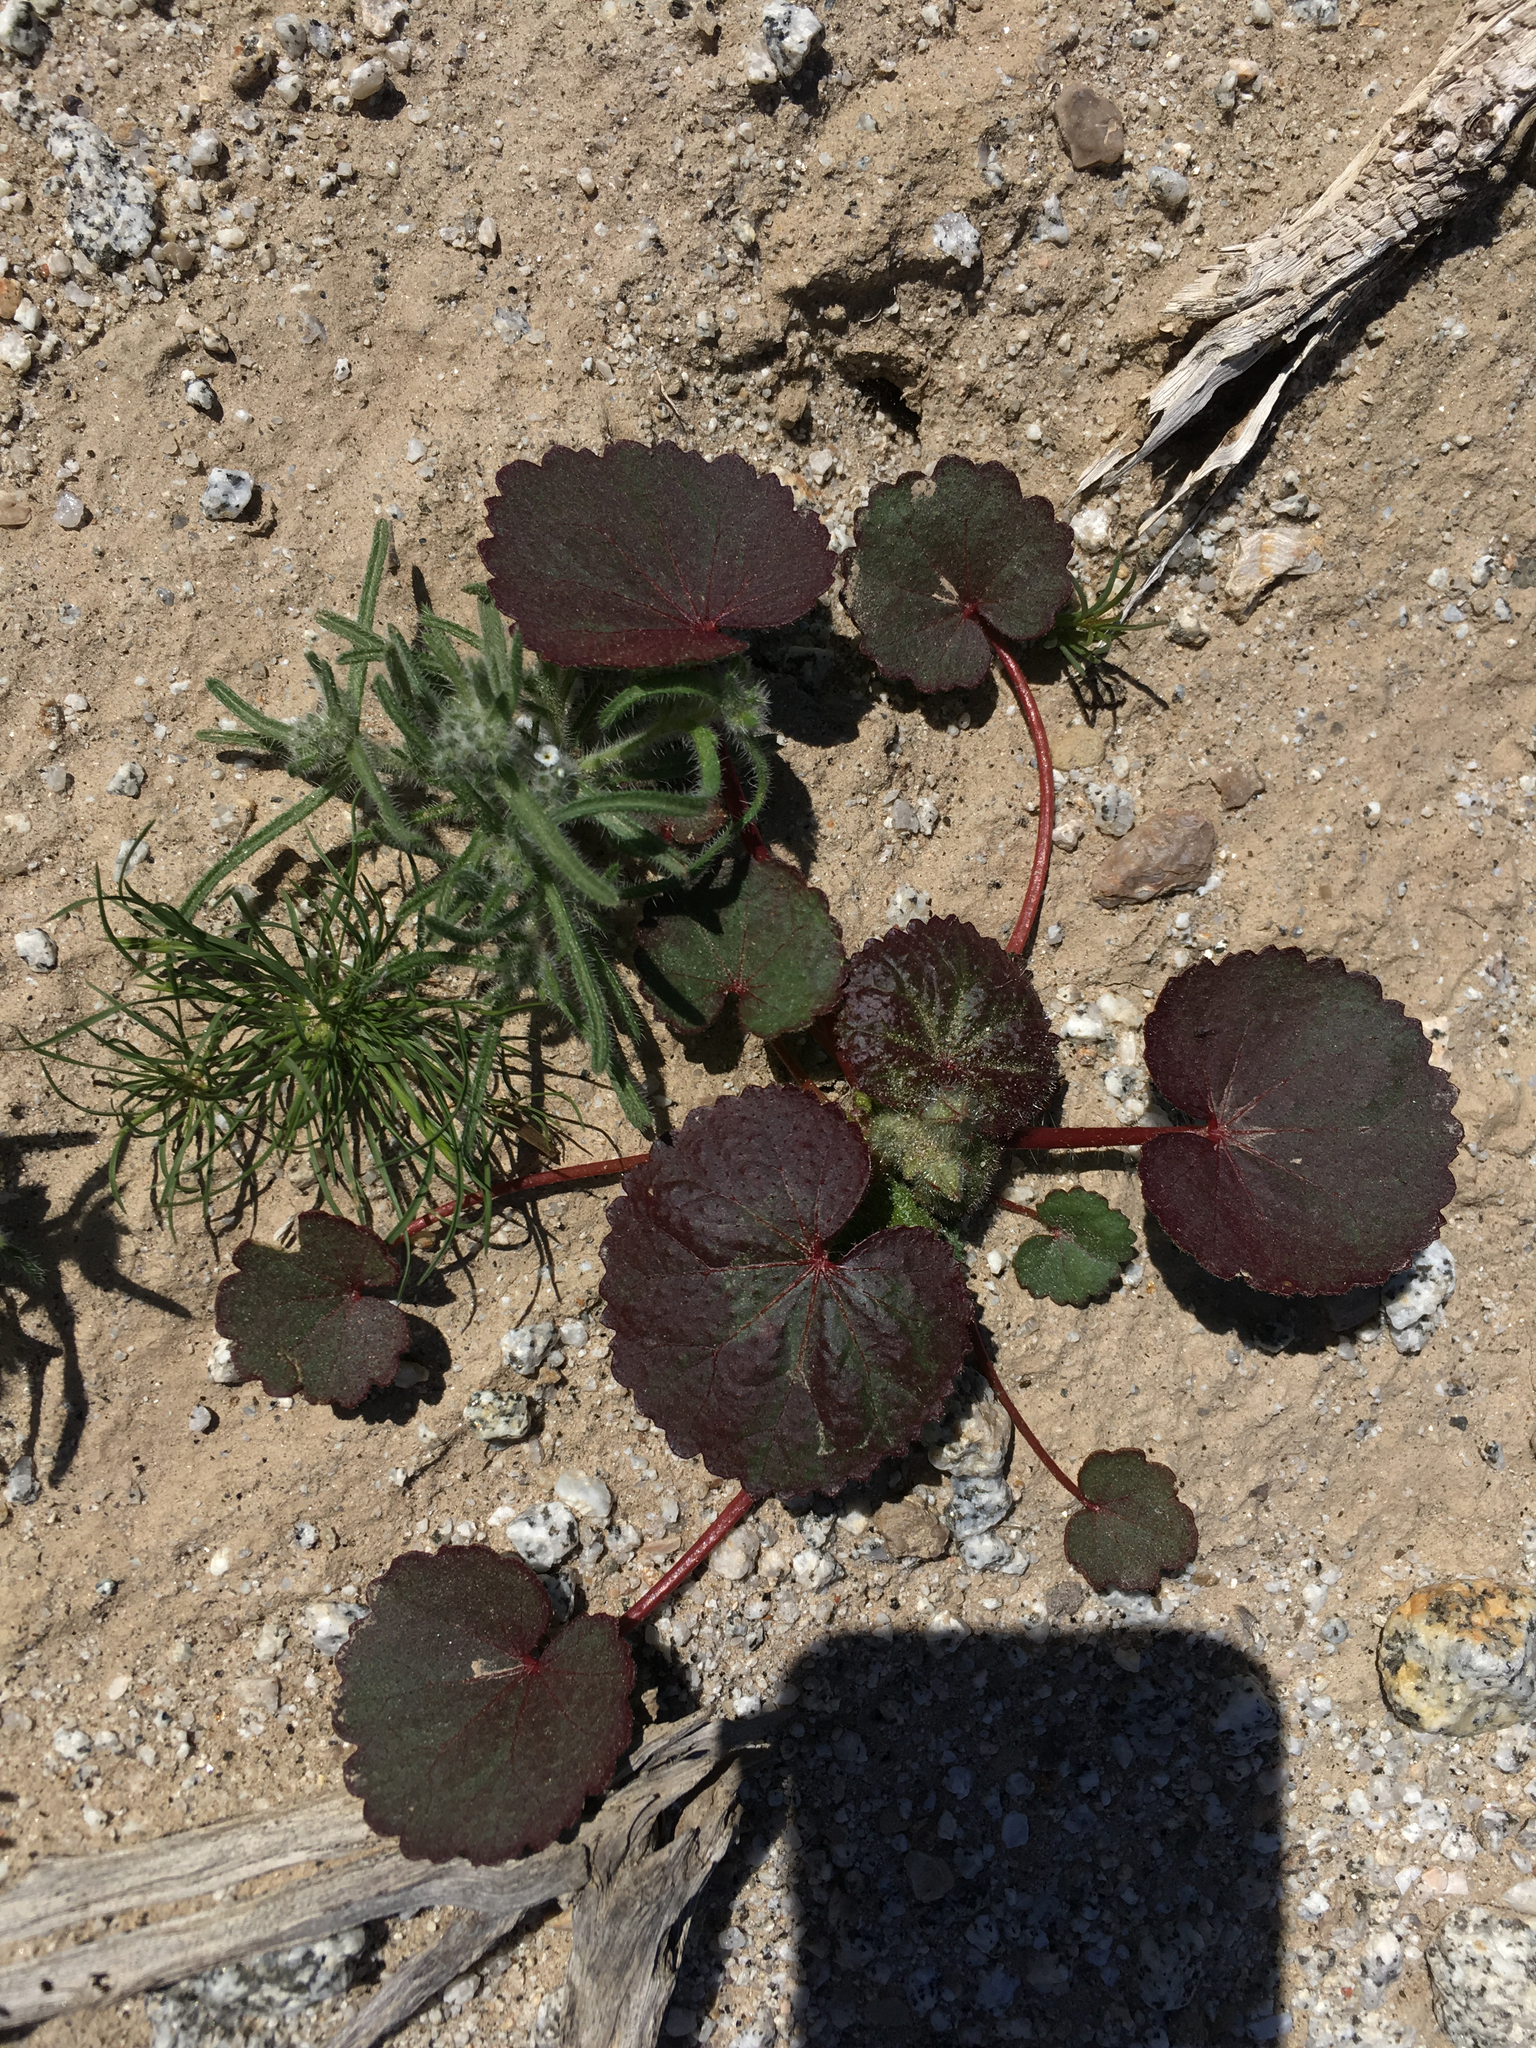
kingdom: Plantae
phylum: Tracheophyta
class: Magnoliopsida
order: Malvales
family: Malvaceae
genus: Eremalche
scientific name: Eremalche rotundifolia
